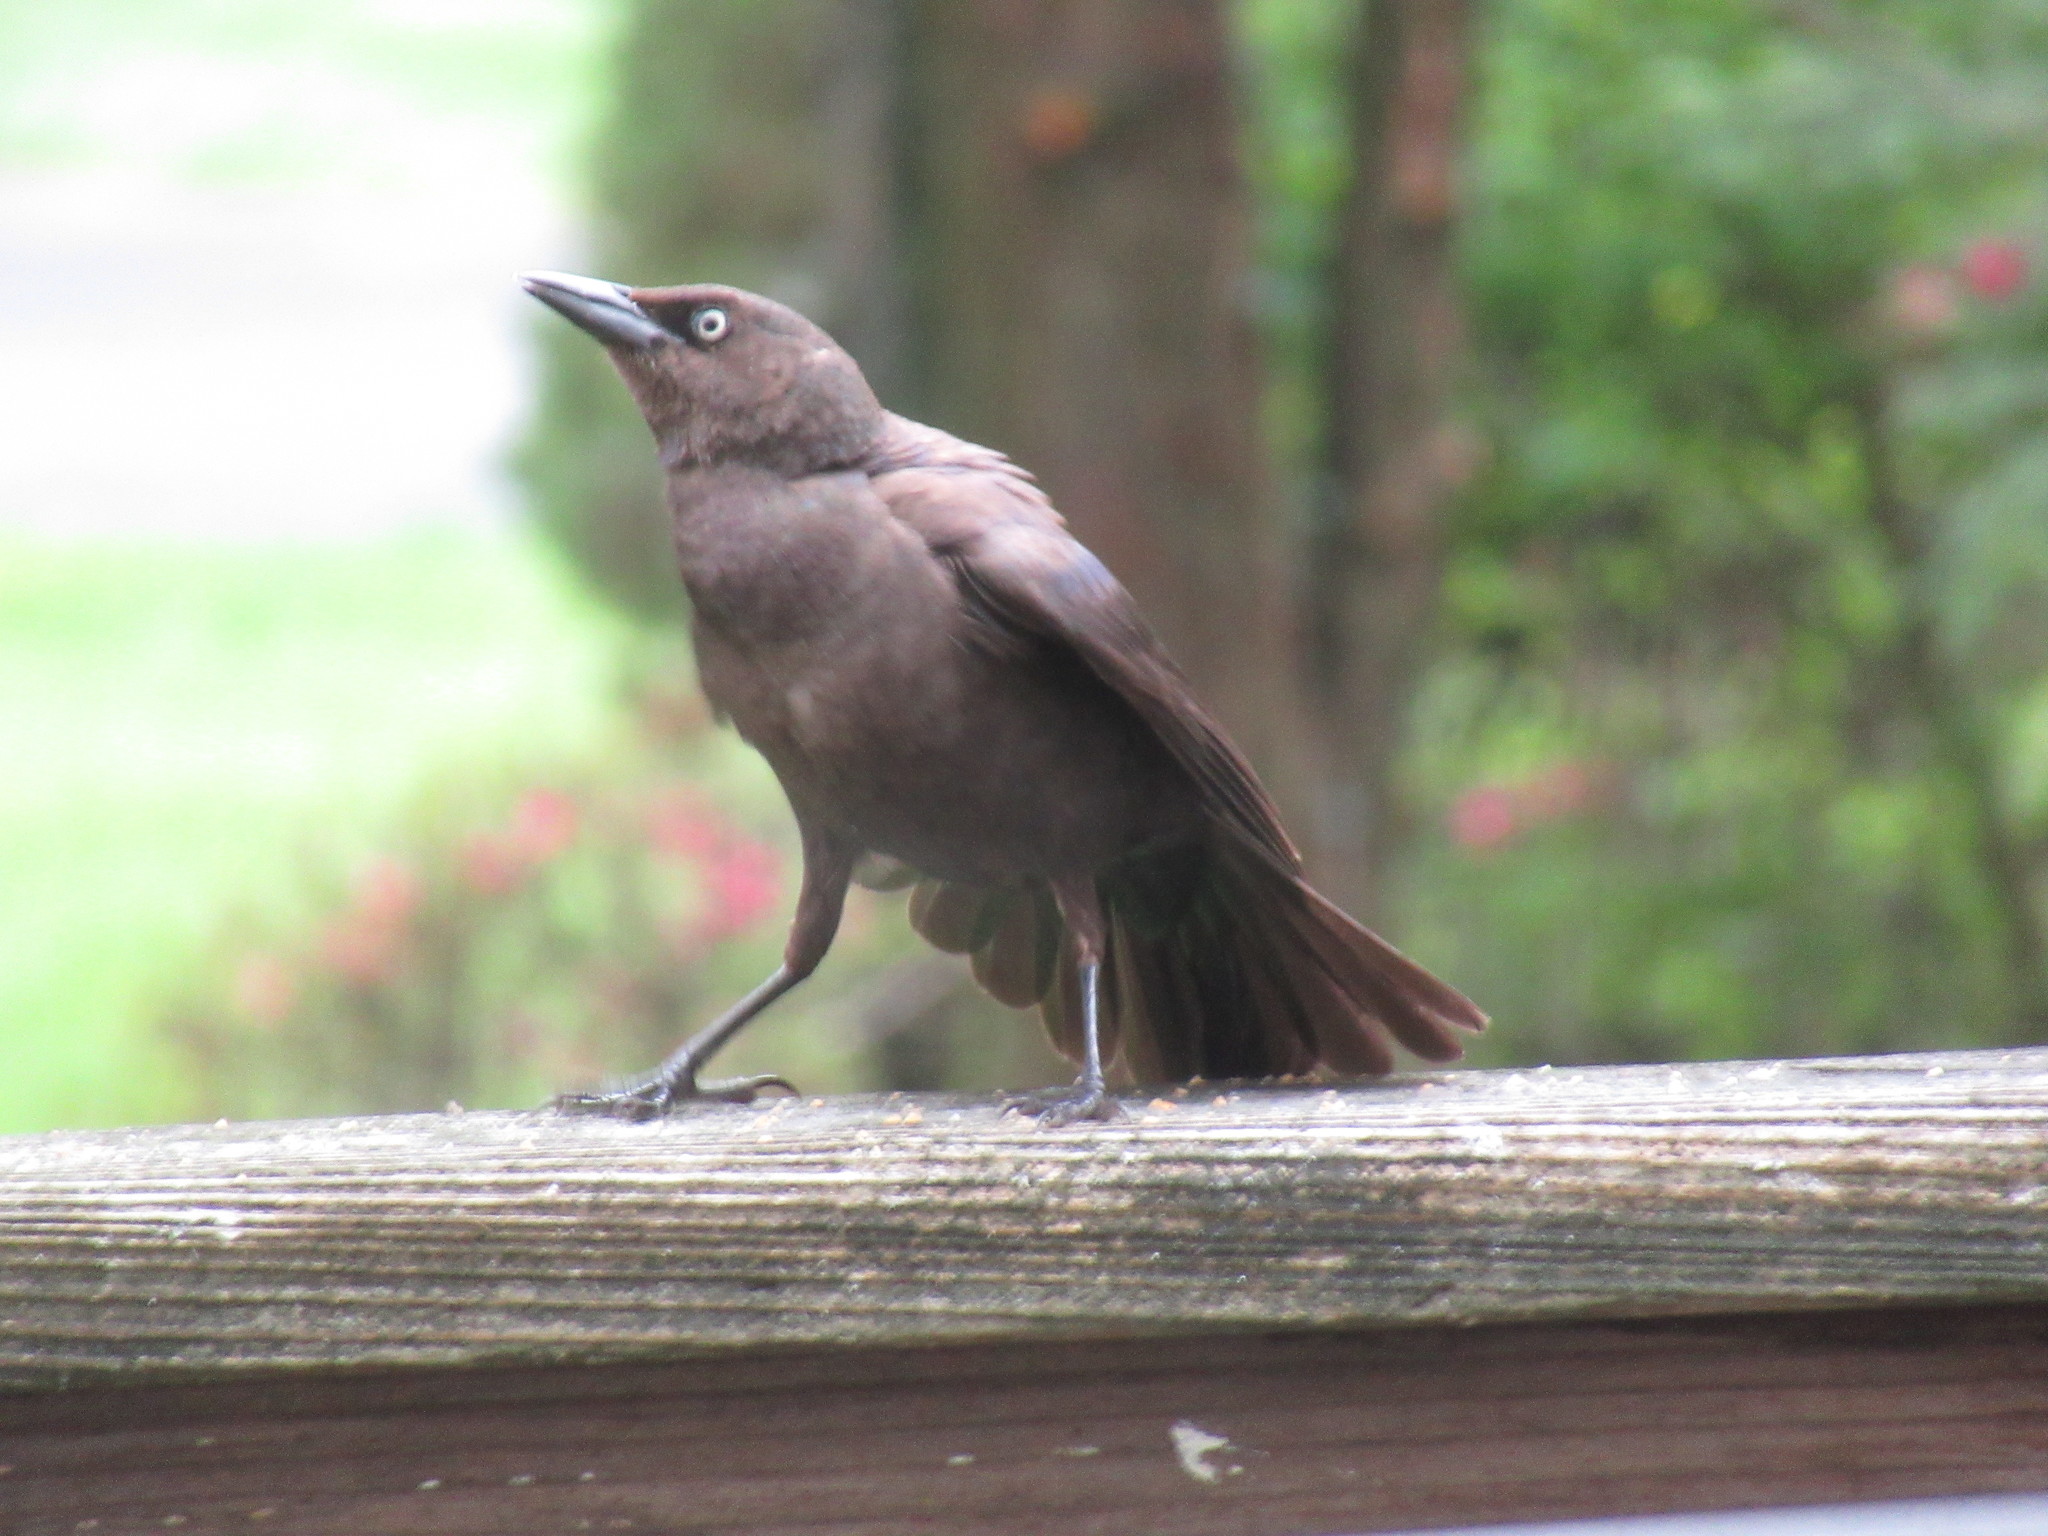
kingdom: Animalia
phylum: Chordata
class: Aves
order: Passeriformes
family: Icteridae
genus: Quiscalus
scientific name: Quiscalus quiscula
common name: Common grackle
